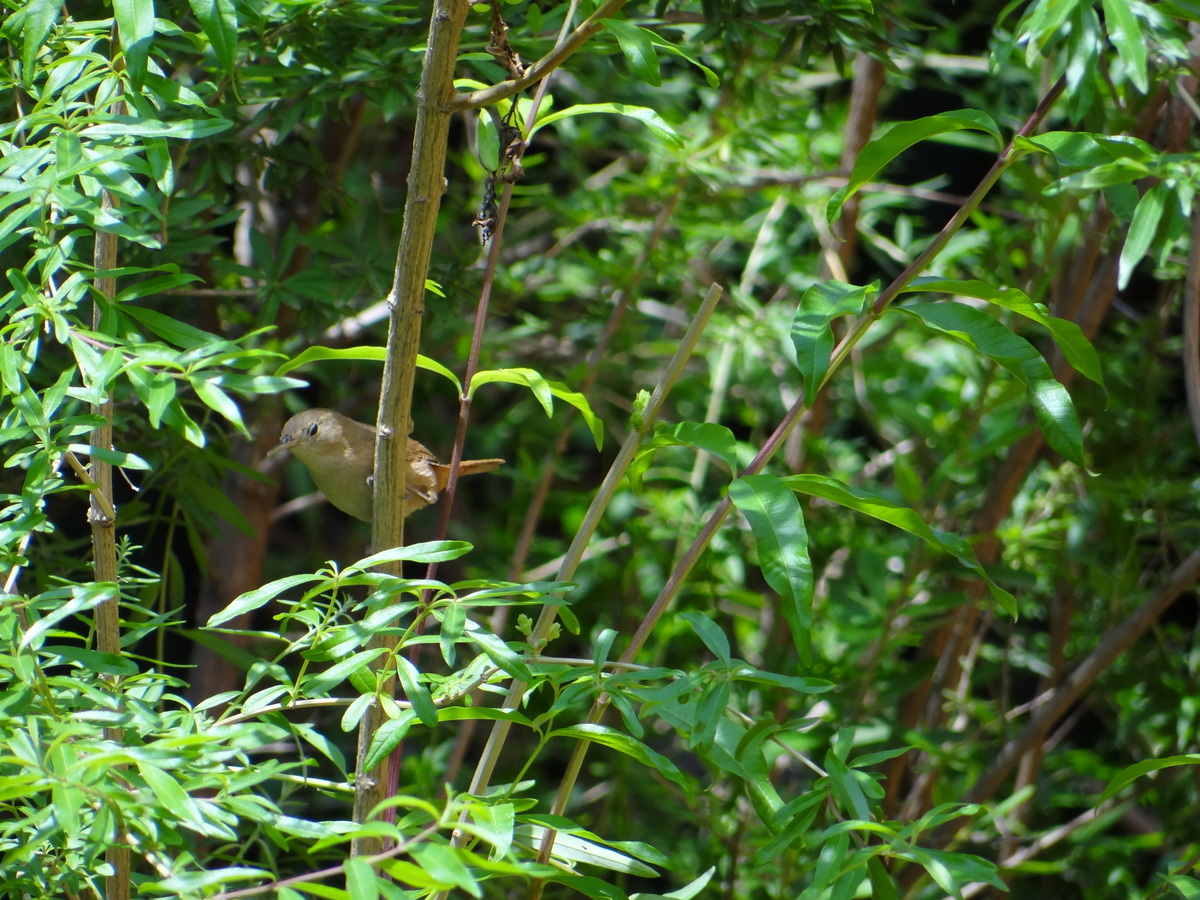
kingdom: Animalia
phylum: Chordata
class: Aves
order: Passeriformes
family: Troglodytidae
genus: Troglodytes
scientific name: Troglodytes aedon
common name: House wren
